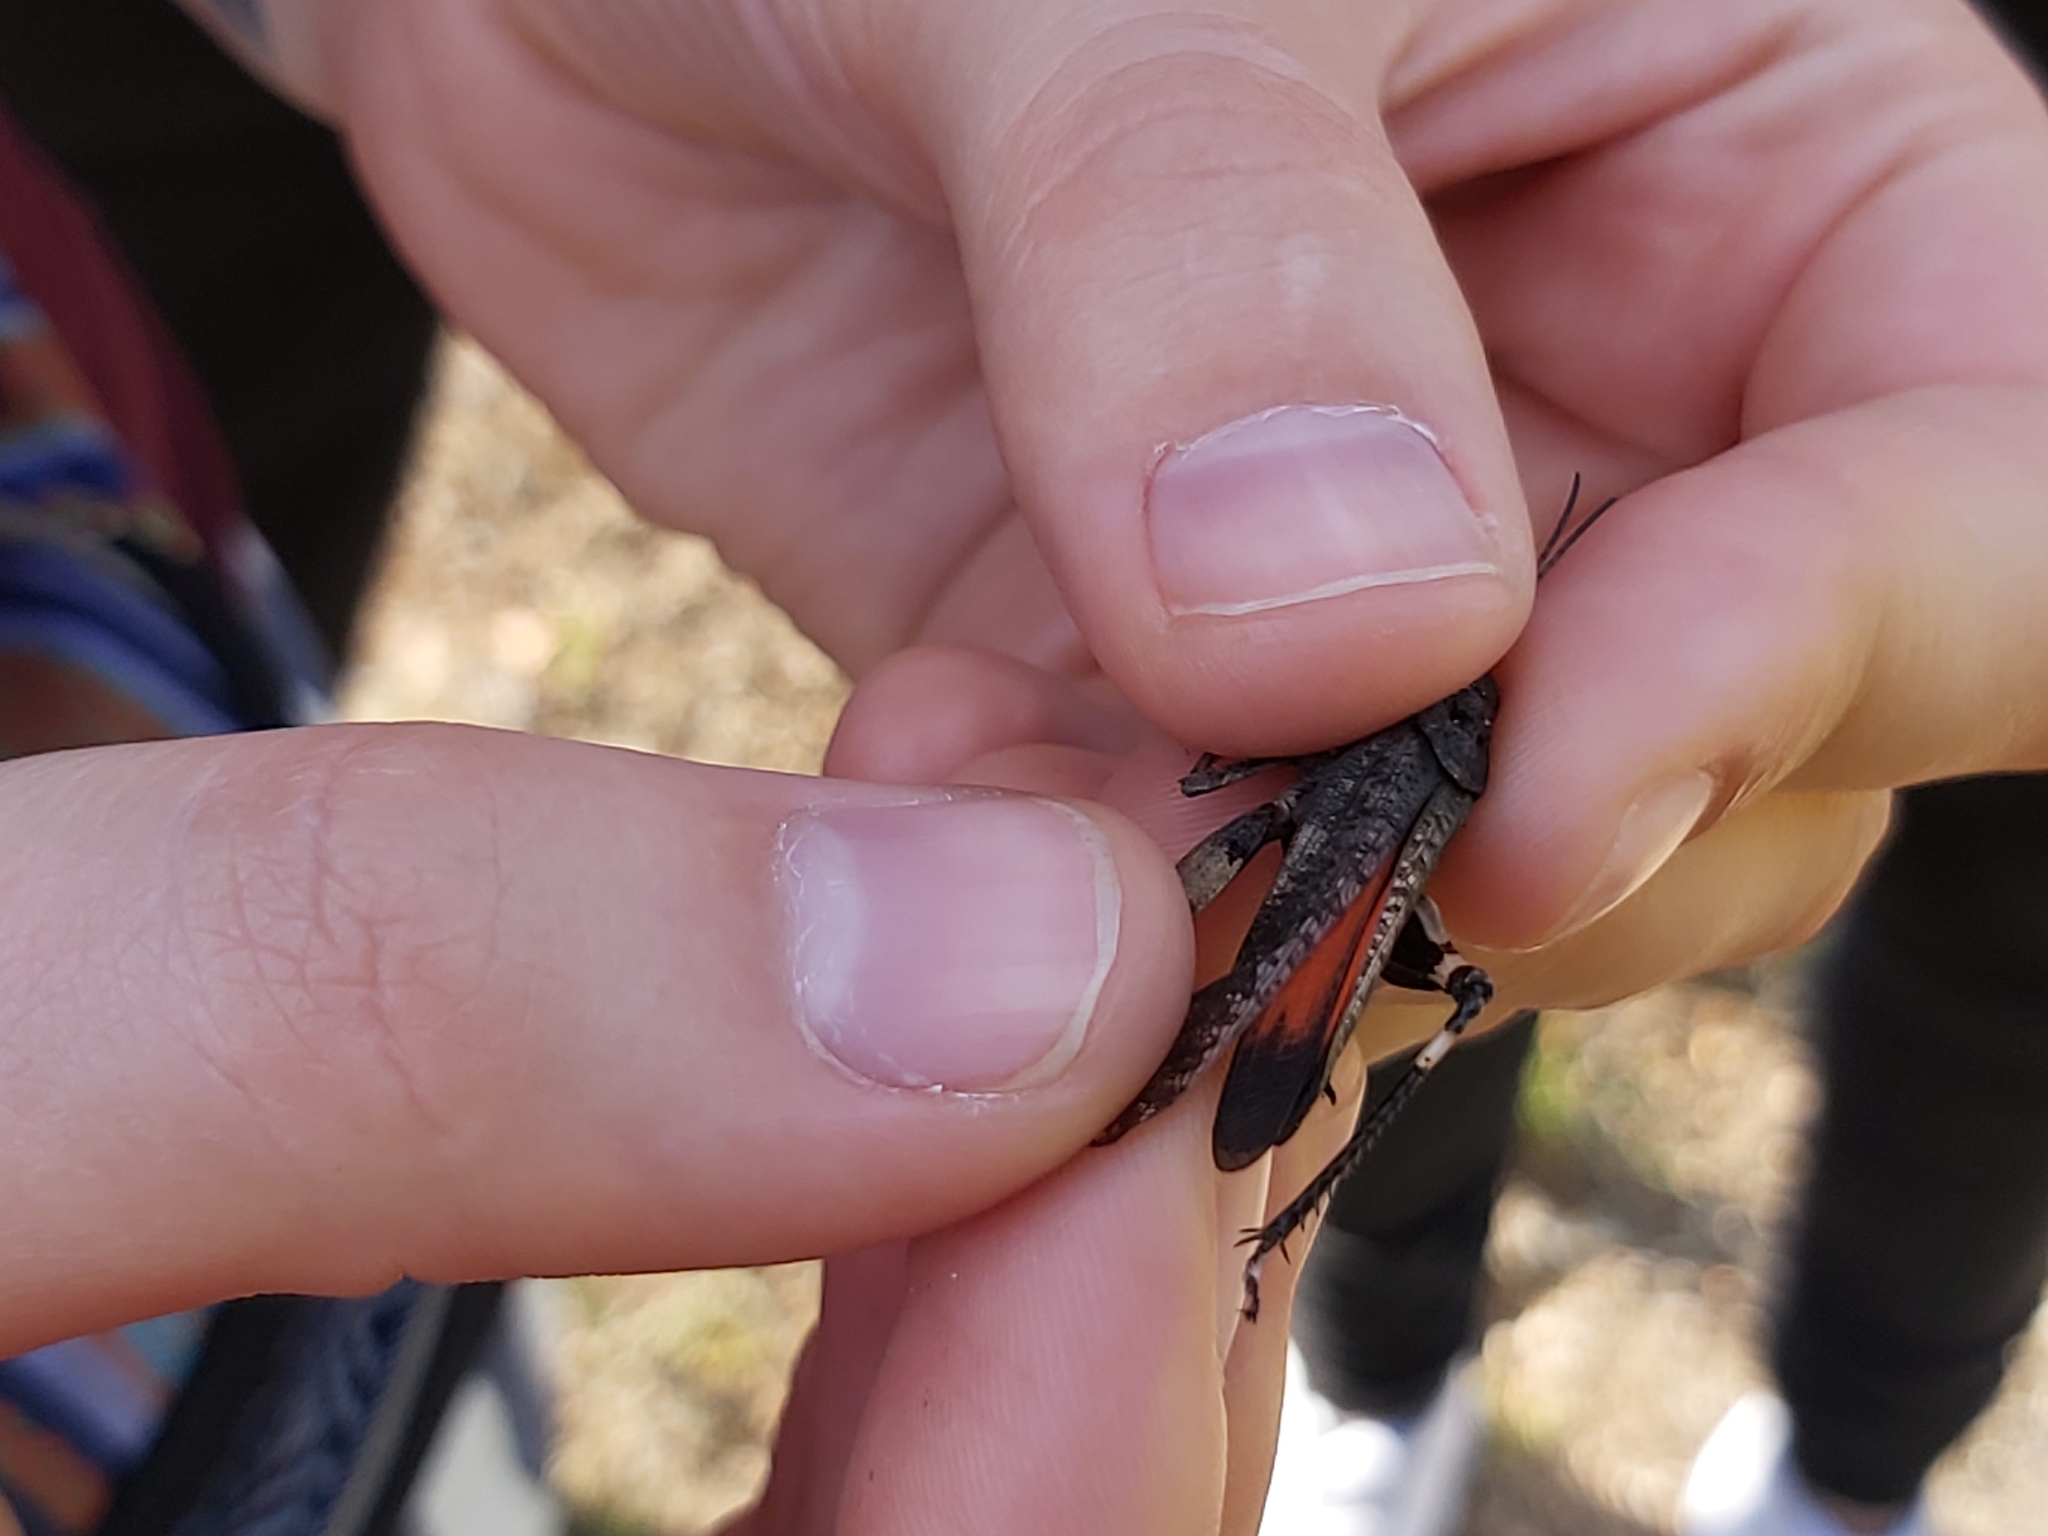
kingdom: Animalia
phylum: Arthropoda
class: Insecta
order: Orthoptera
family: Acrididae
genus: Psophus
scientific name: Psophus stridulus
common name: Rattle grasshopper
